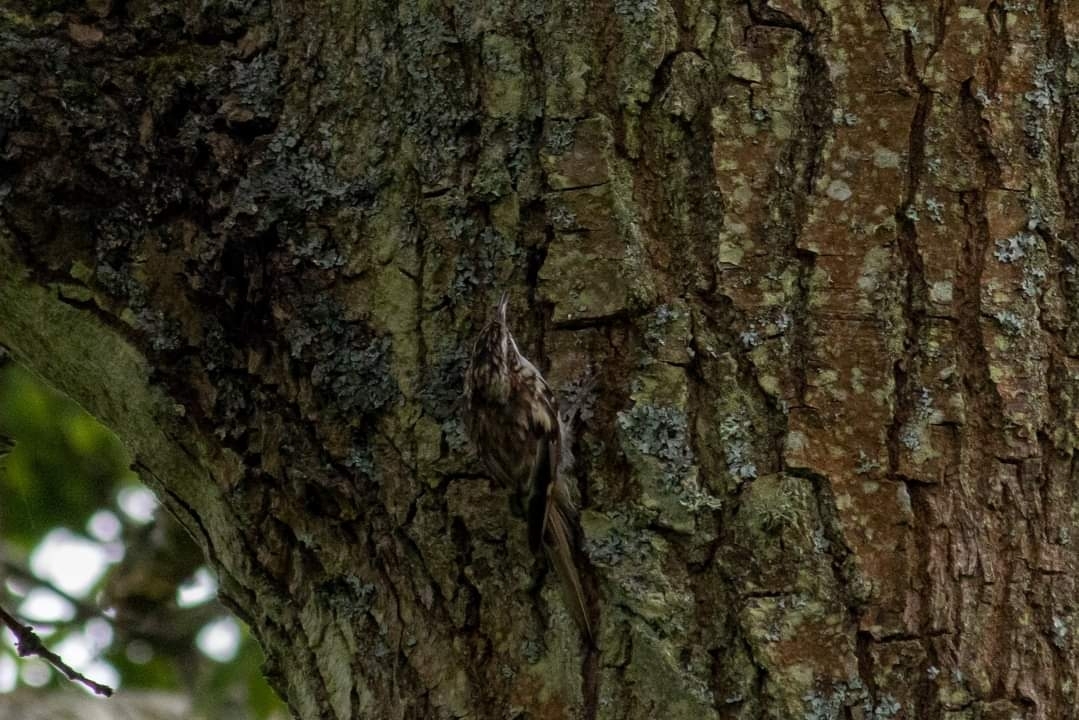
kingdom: Animalia
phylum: Chordata
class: Aves
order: Passeriformes
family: Certhiidae
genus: Certhia
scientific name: Certhia familiaris
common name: Eurasian treecreeper
